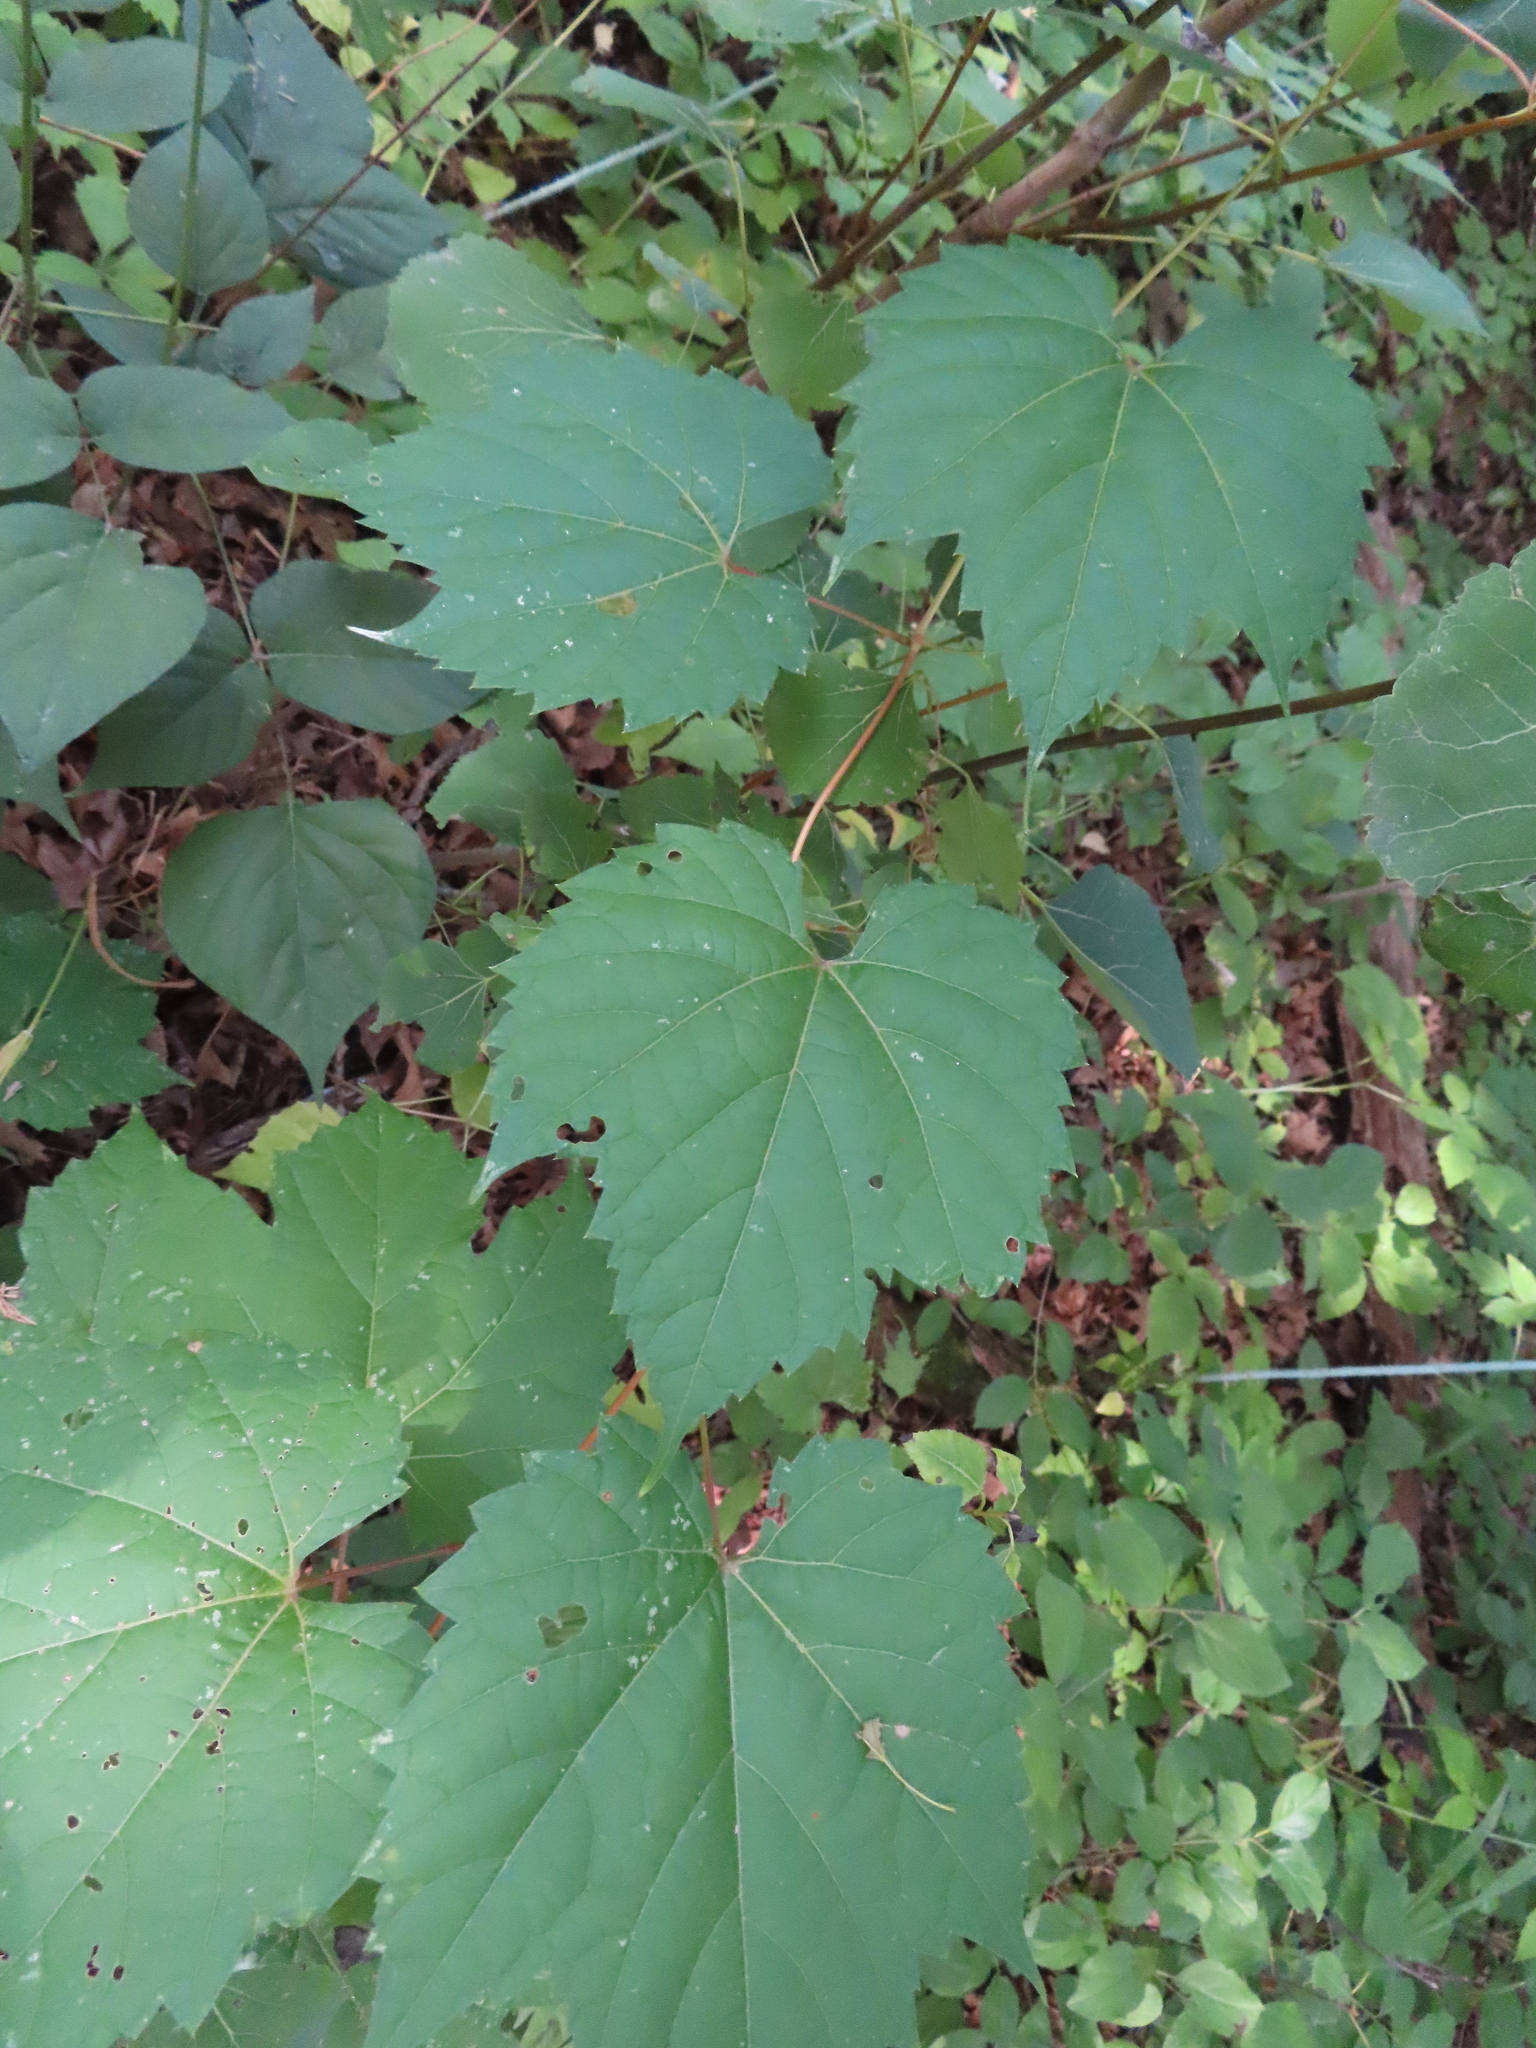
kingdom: Plantae
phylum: Tracheophyta
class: Magnoliopsida
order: Vitales
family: Vitaceae
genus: Vitis
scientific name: Vitis riparia
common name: Frost grape
